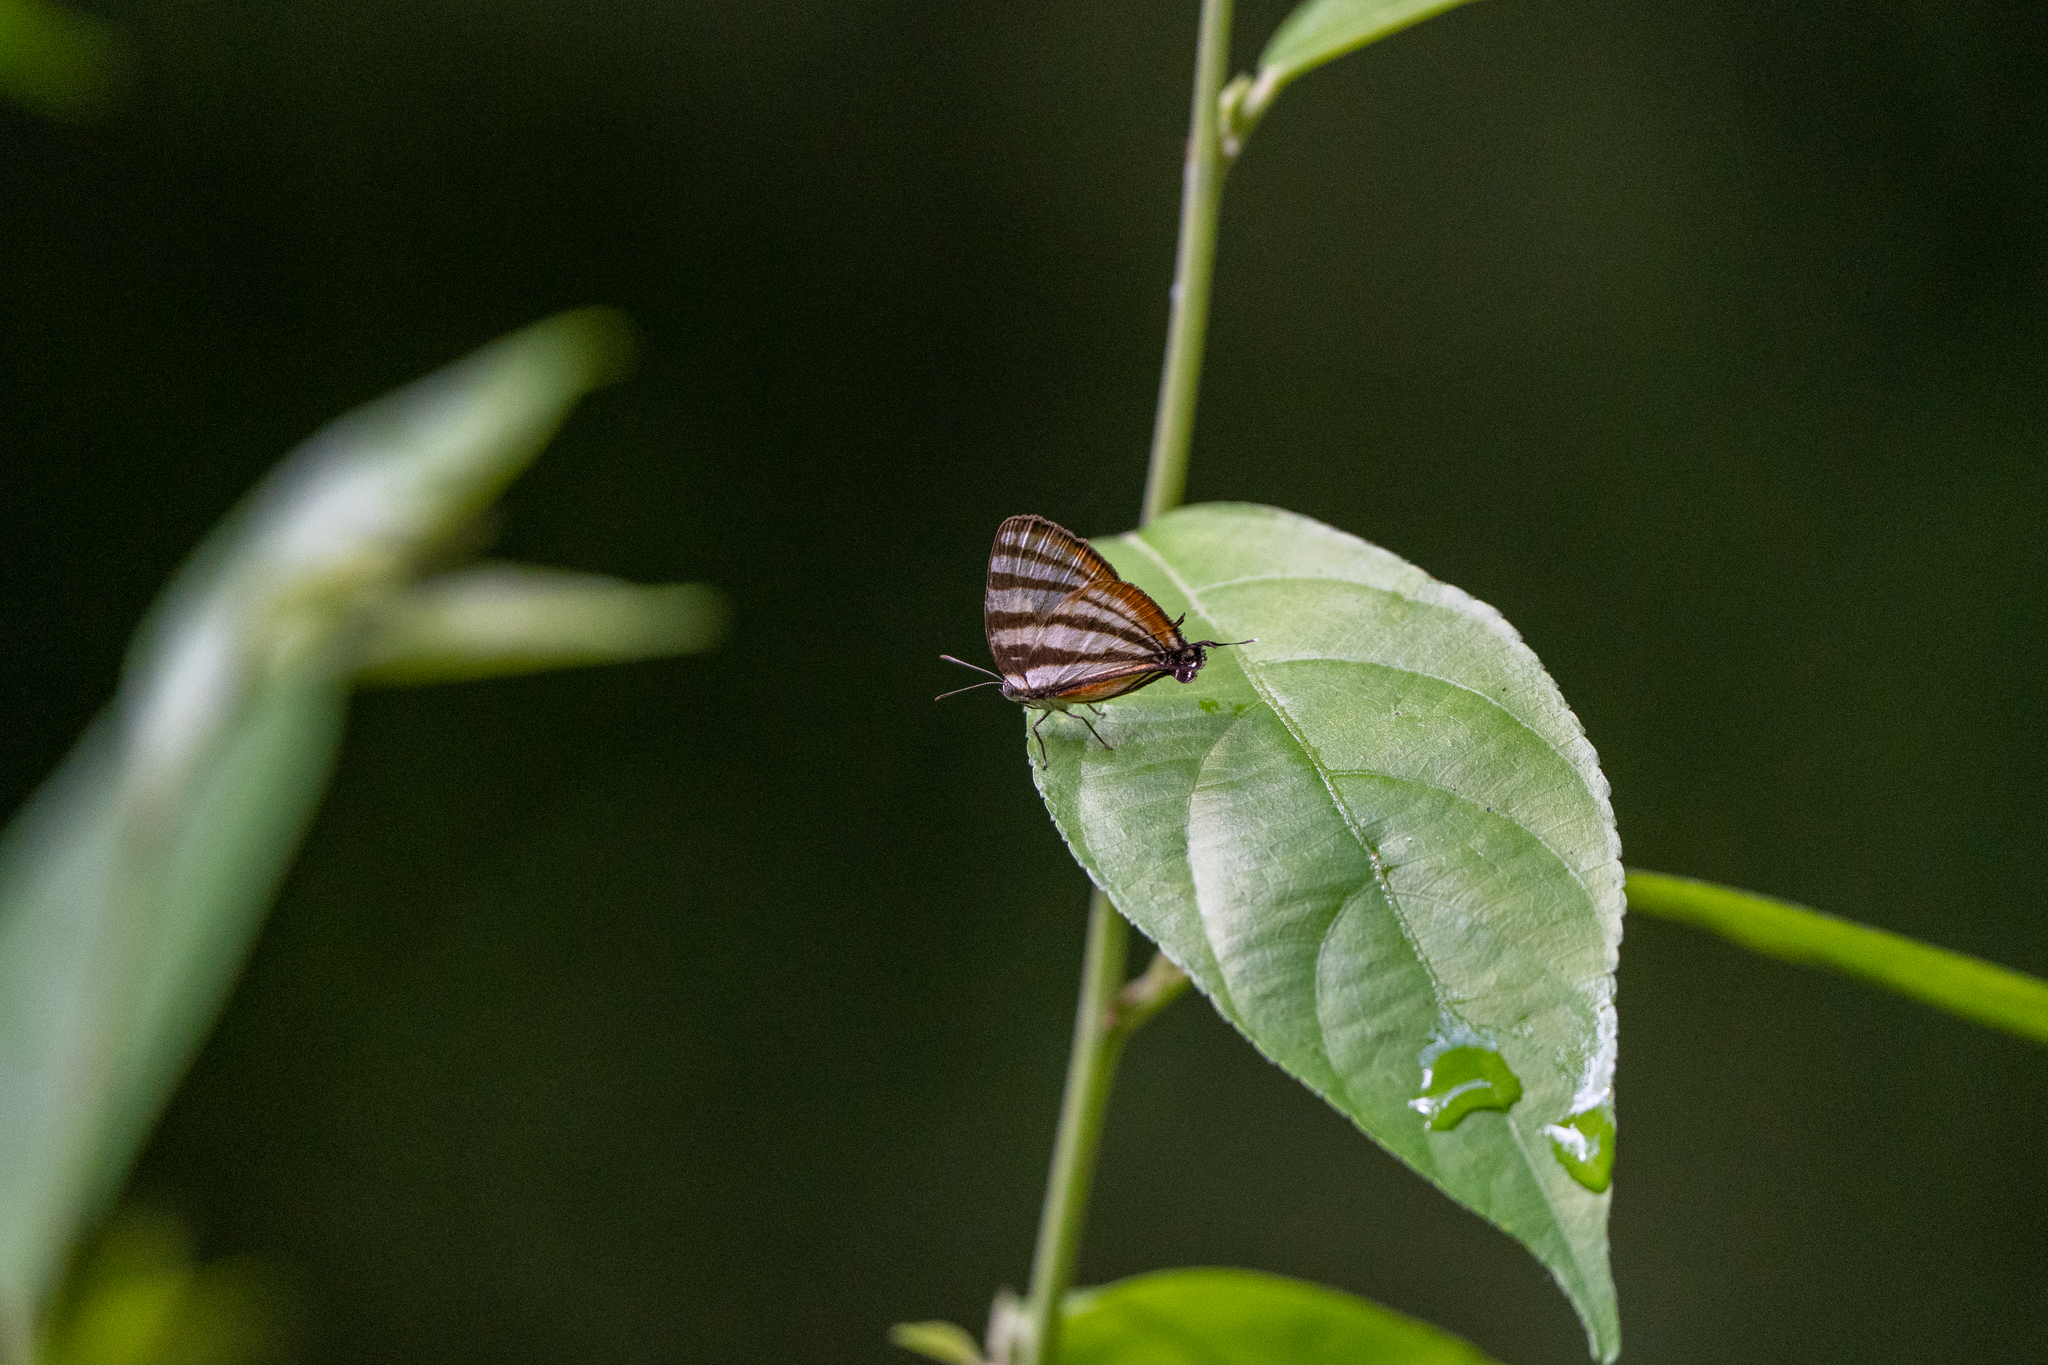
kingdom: Animalia
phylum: Arthropoda
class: Insecta
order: Lepidoptera
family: Lycaenidae
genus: Arawacus
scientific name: Arawacus lincoides
